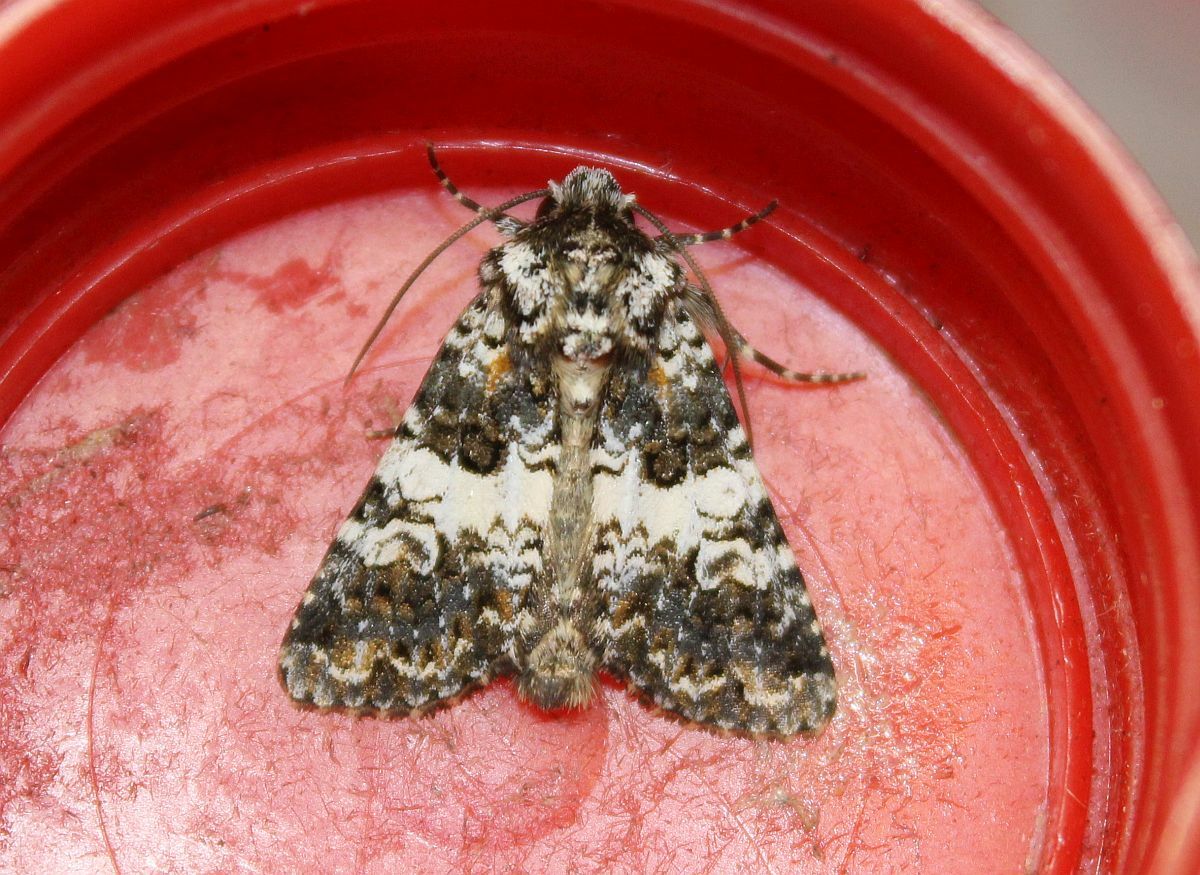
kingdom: Animalia
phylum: Arthropoda
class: Insecta
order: Lepidoptera
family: Noctuidae
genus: Hadena
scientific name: Hadena compta
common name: Varied coronet
